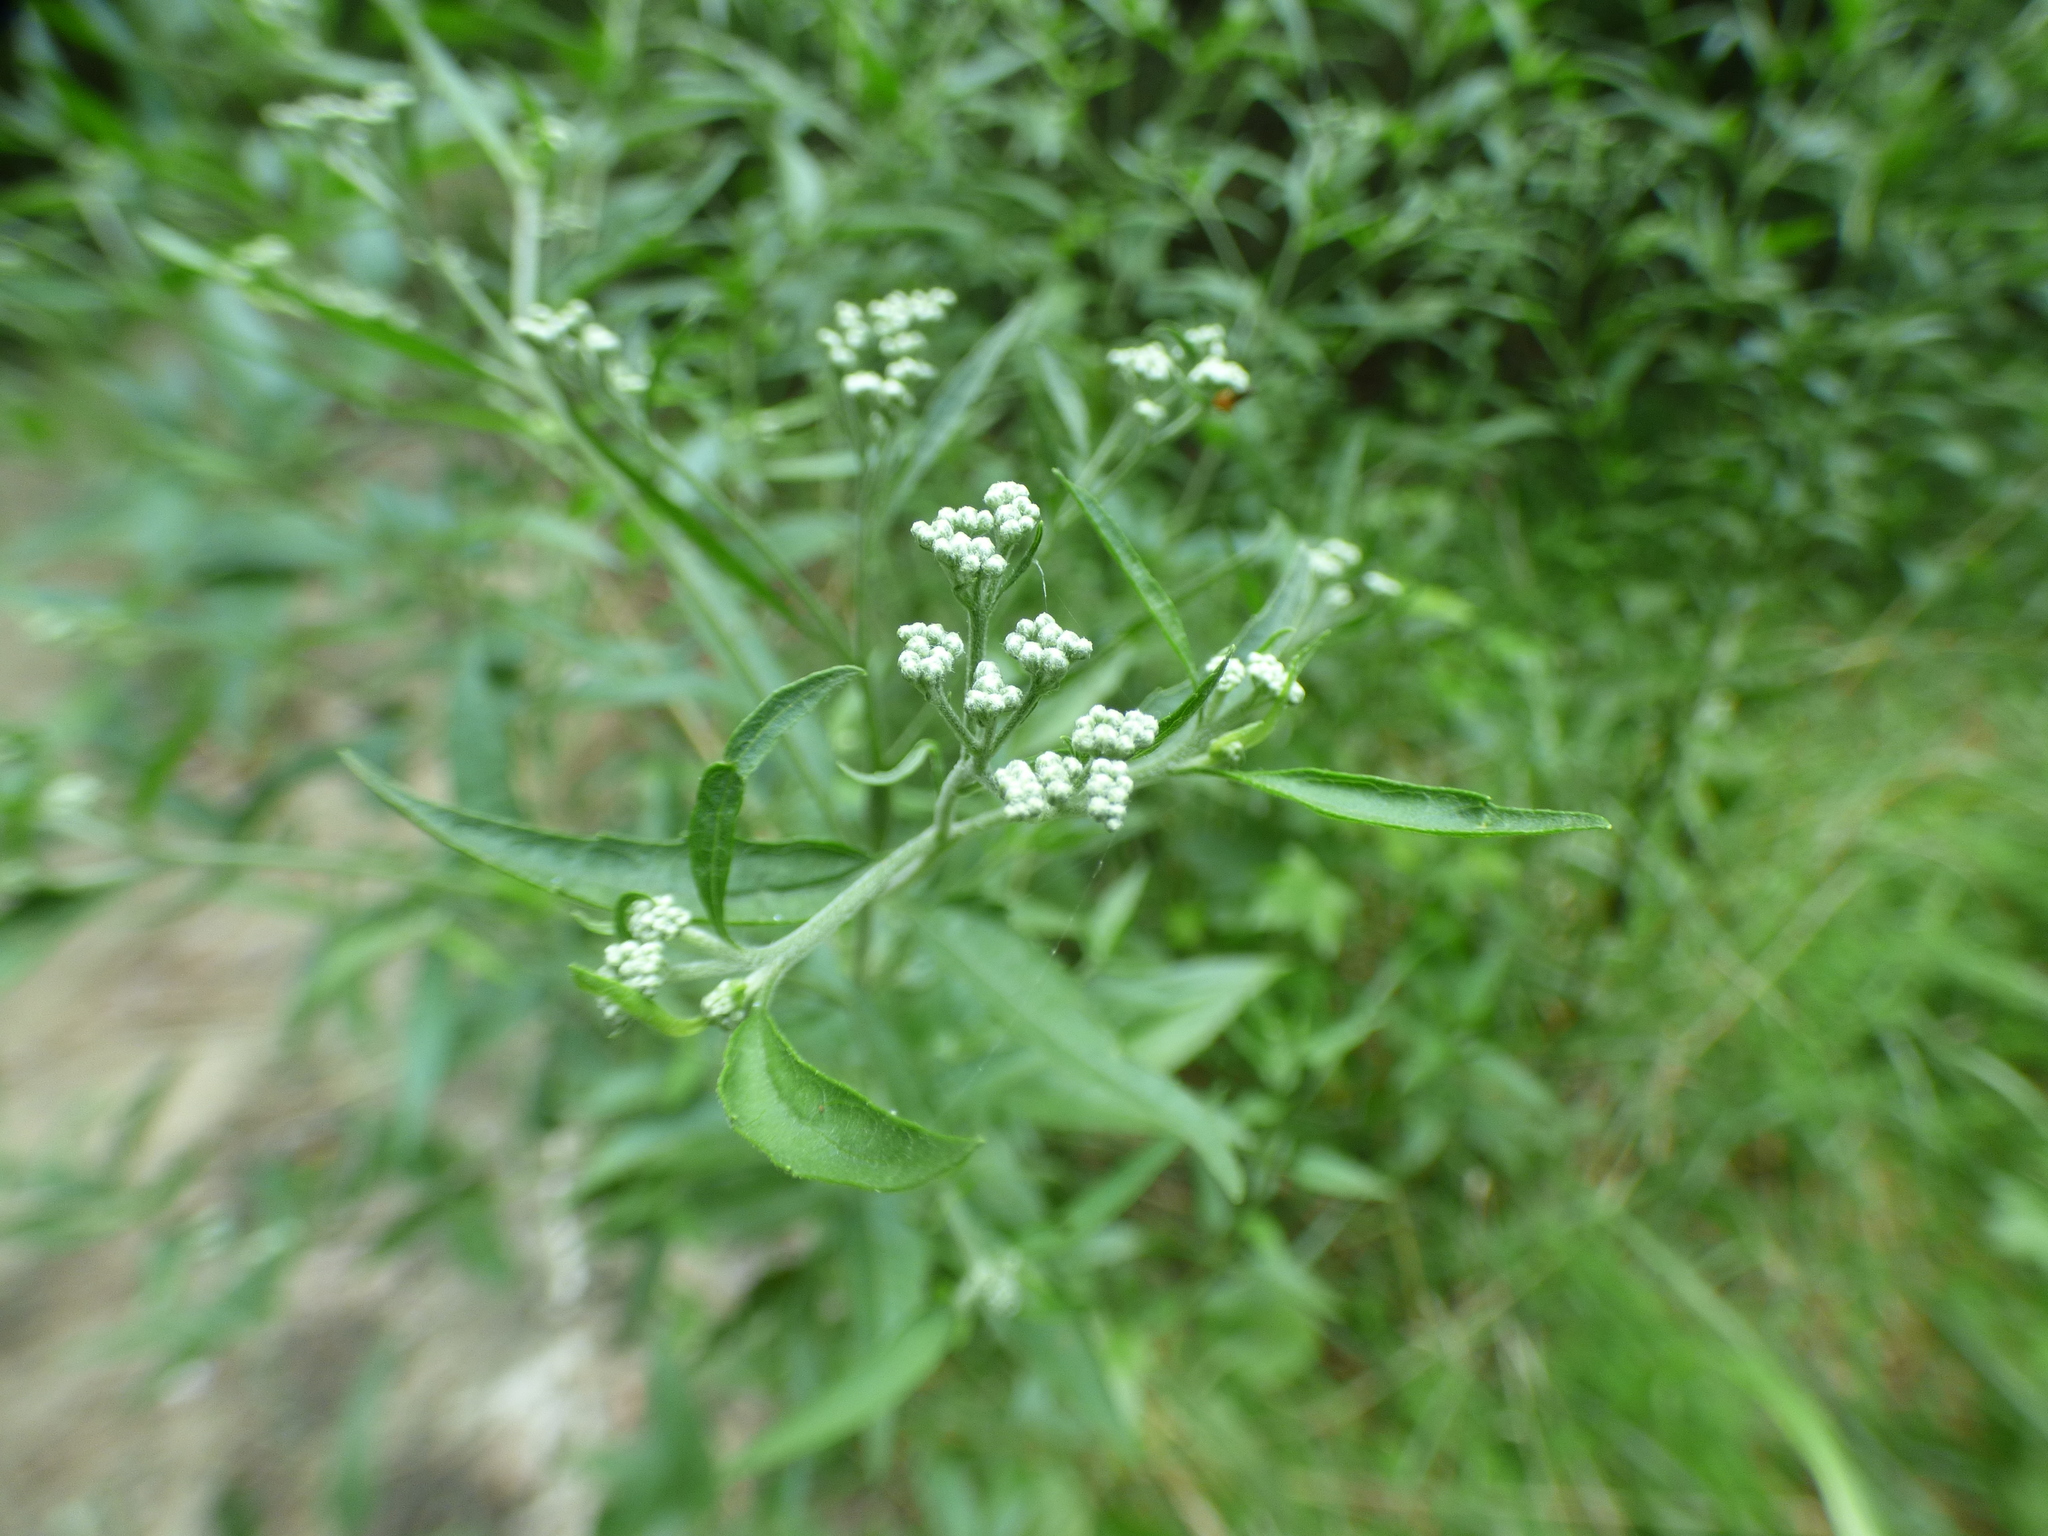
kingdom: Plantae
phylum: Tracheophyta
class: Magnoliopsida
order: Asterales
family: Asteraceae
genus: Eupatorium
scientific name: Eupatorium serotinum
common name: Late boneset
